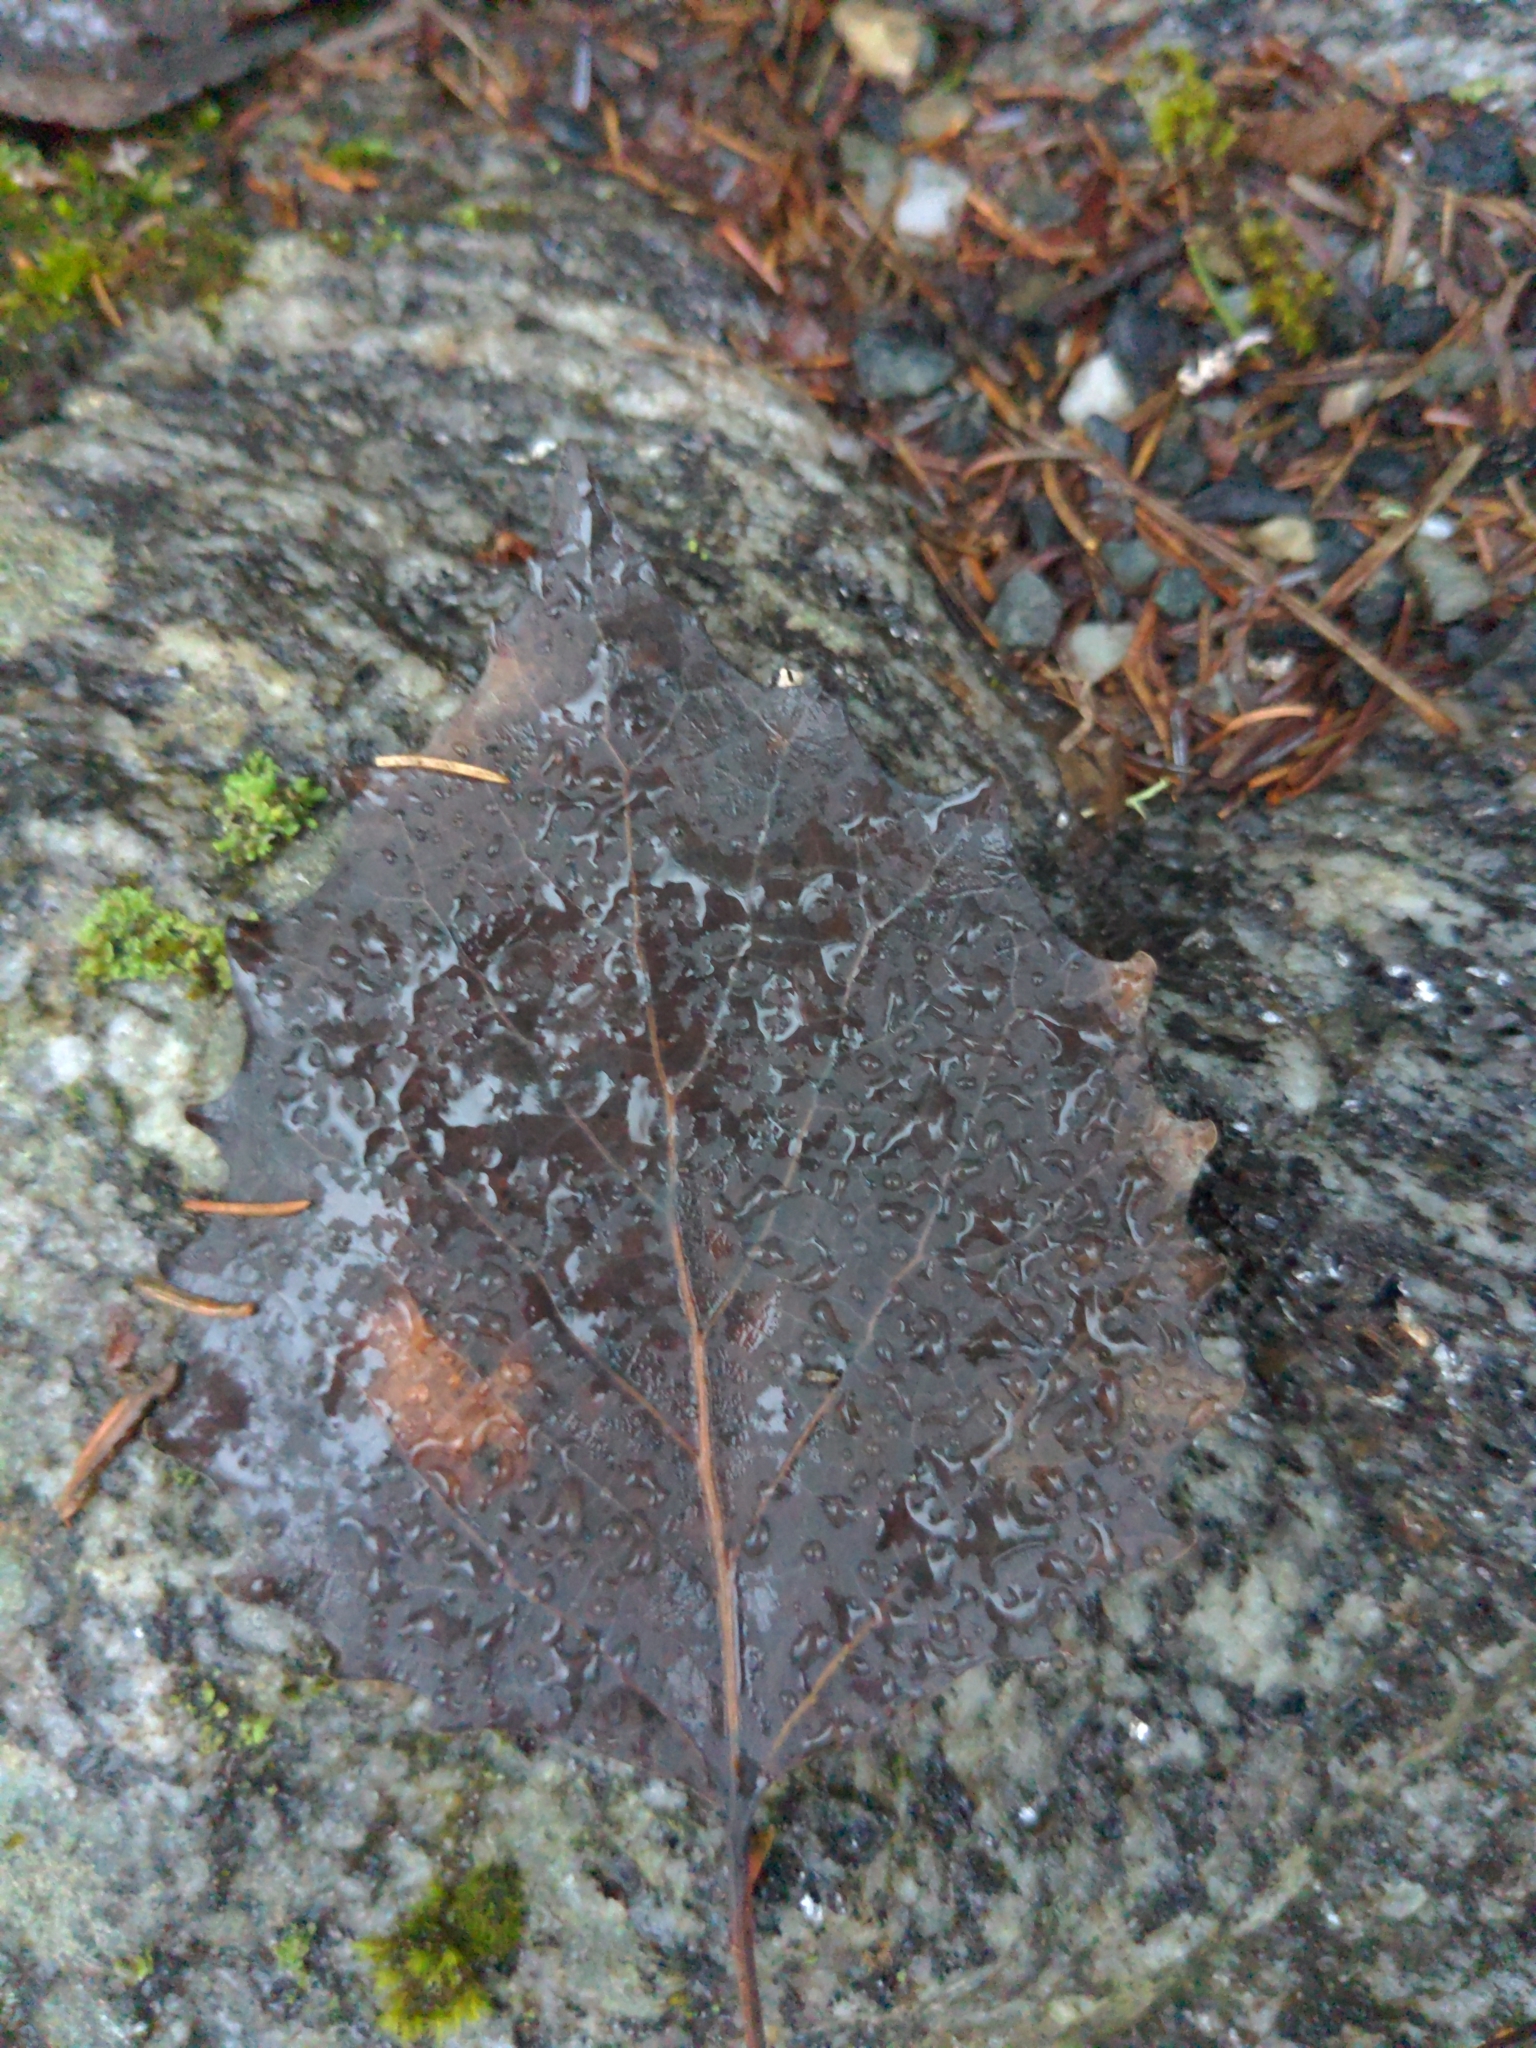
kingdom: Plantae
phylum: Tracheophyta
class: Magnoliopsida
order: Malpighiales
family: Salicaceae
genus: Populus
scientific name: Populus grandidentata
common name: Bigtooth aspen
